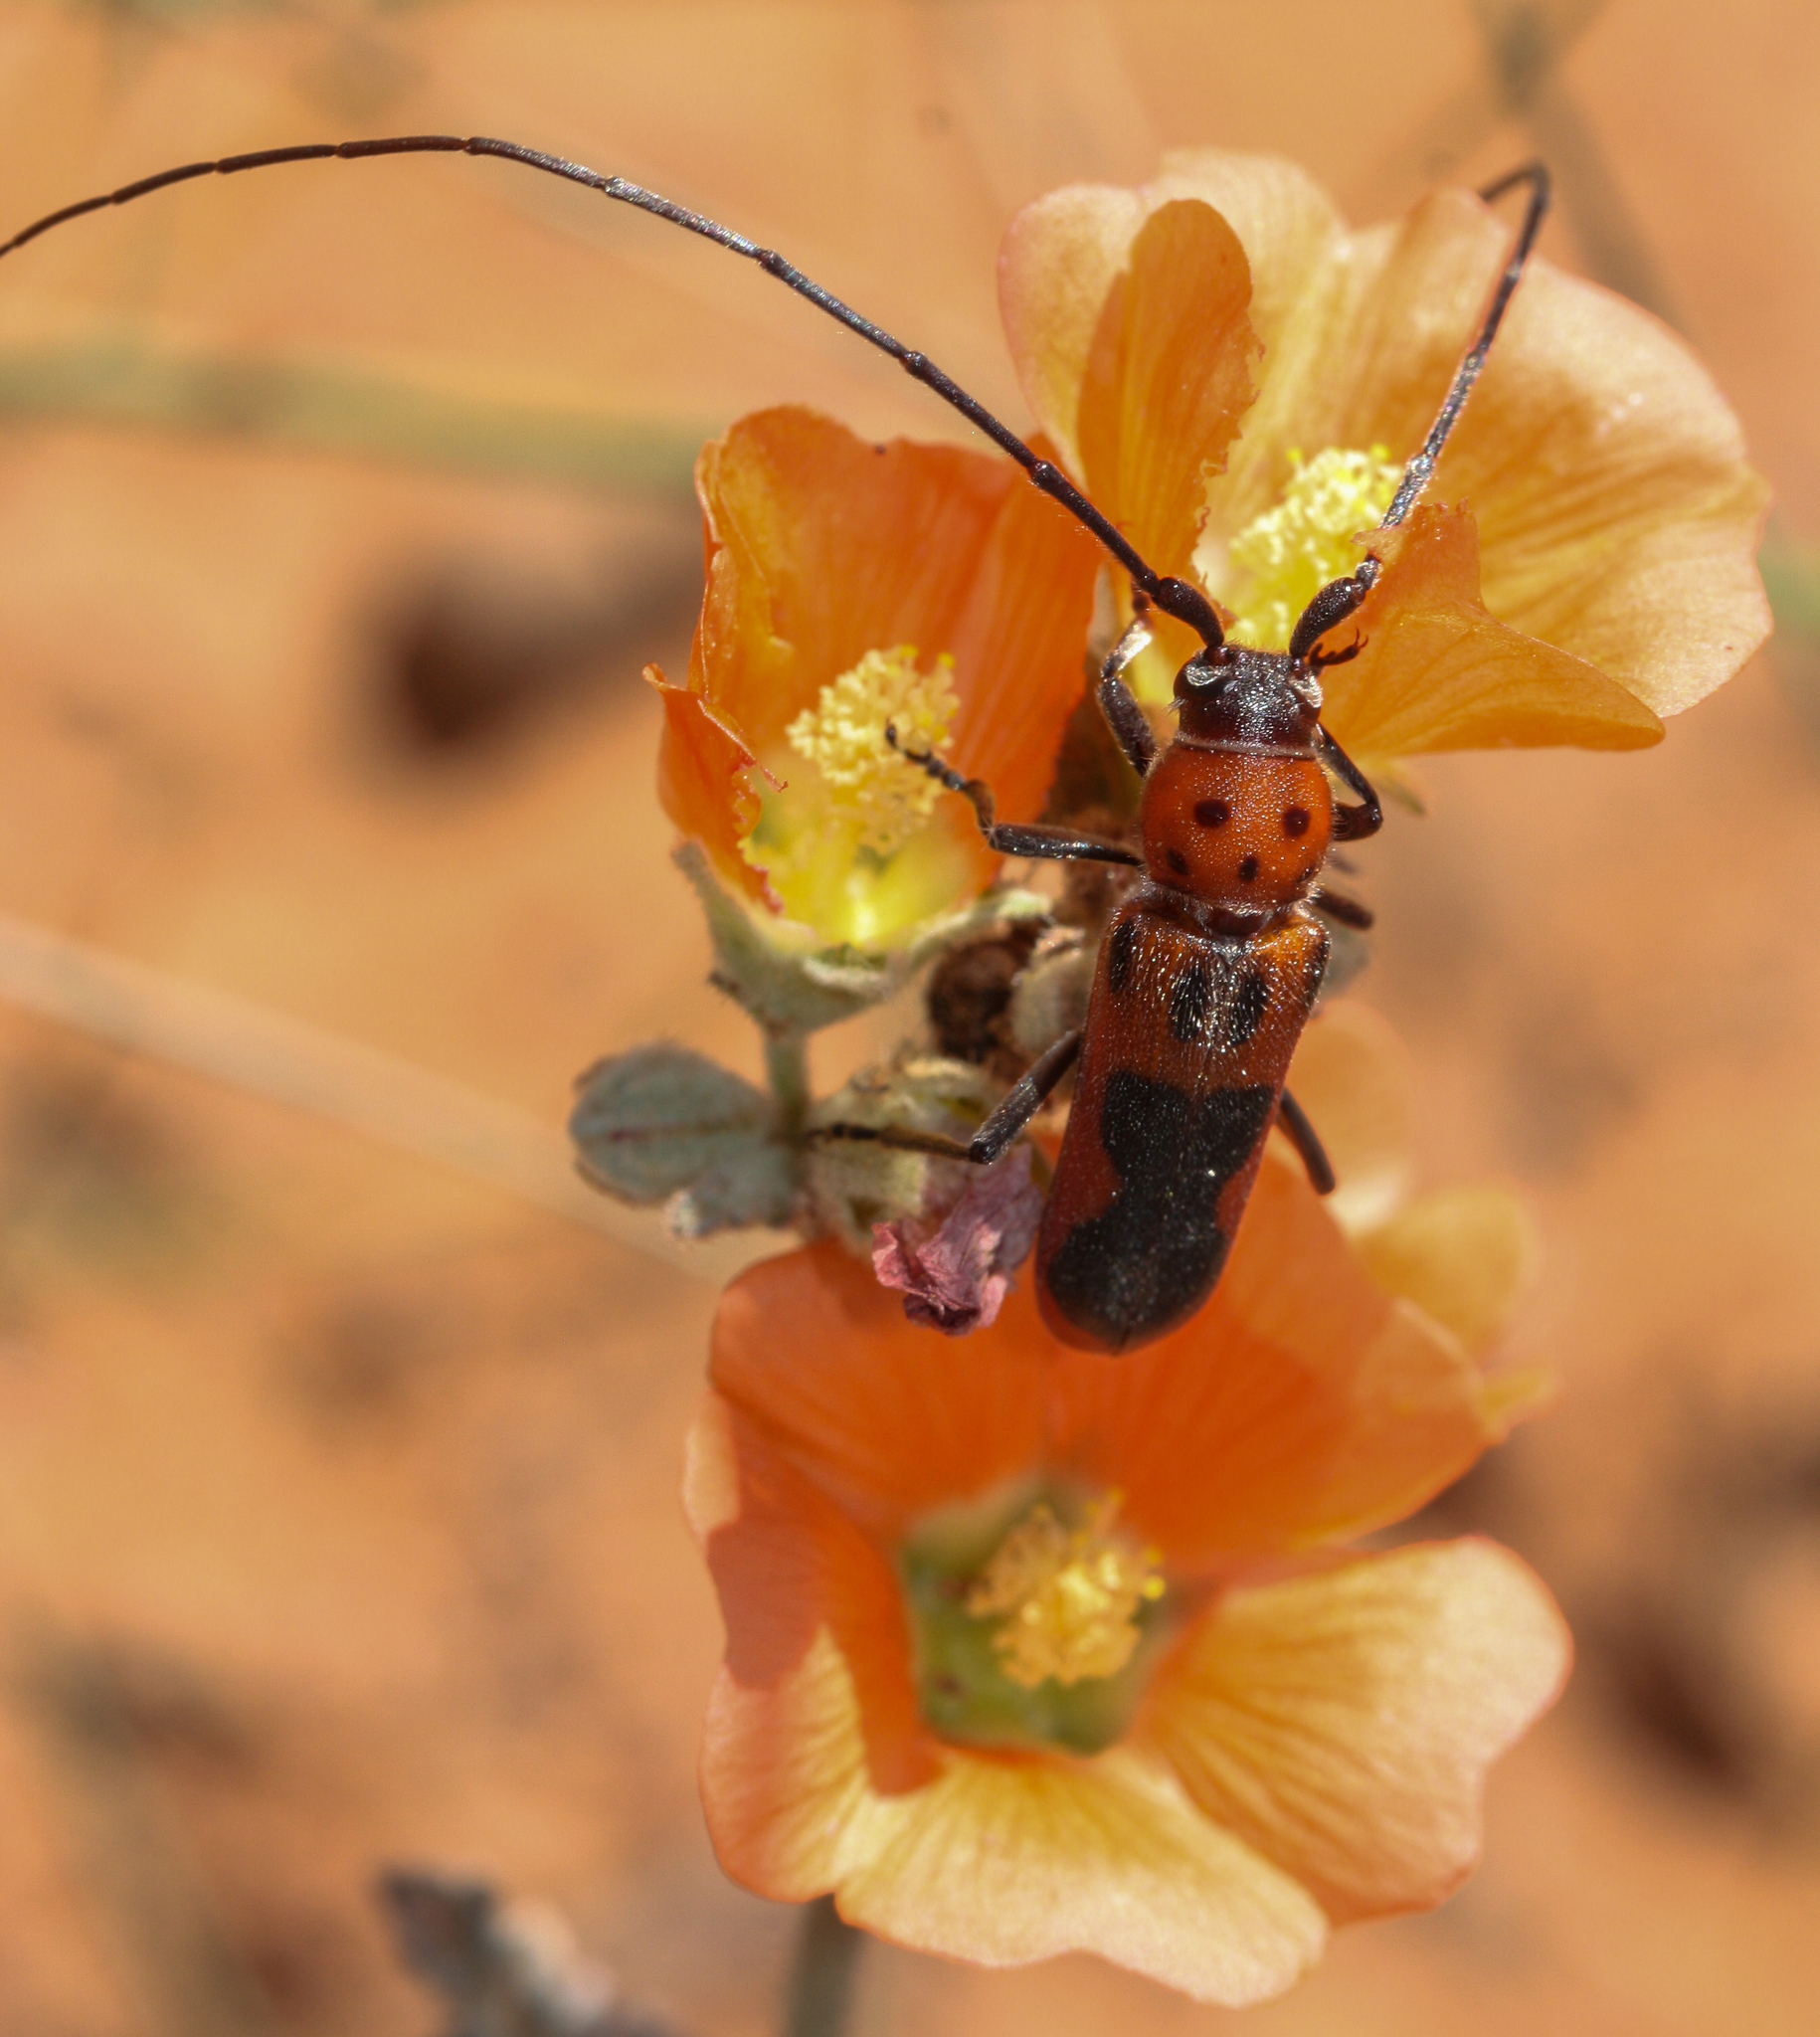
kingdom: Animalia
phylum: Arthropoda
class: Insecta
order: Coleoptera
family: Cerambycidae
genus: Tylosis
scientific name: Tylosis maculatus
